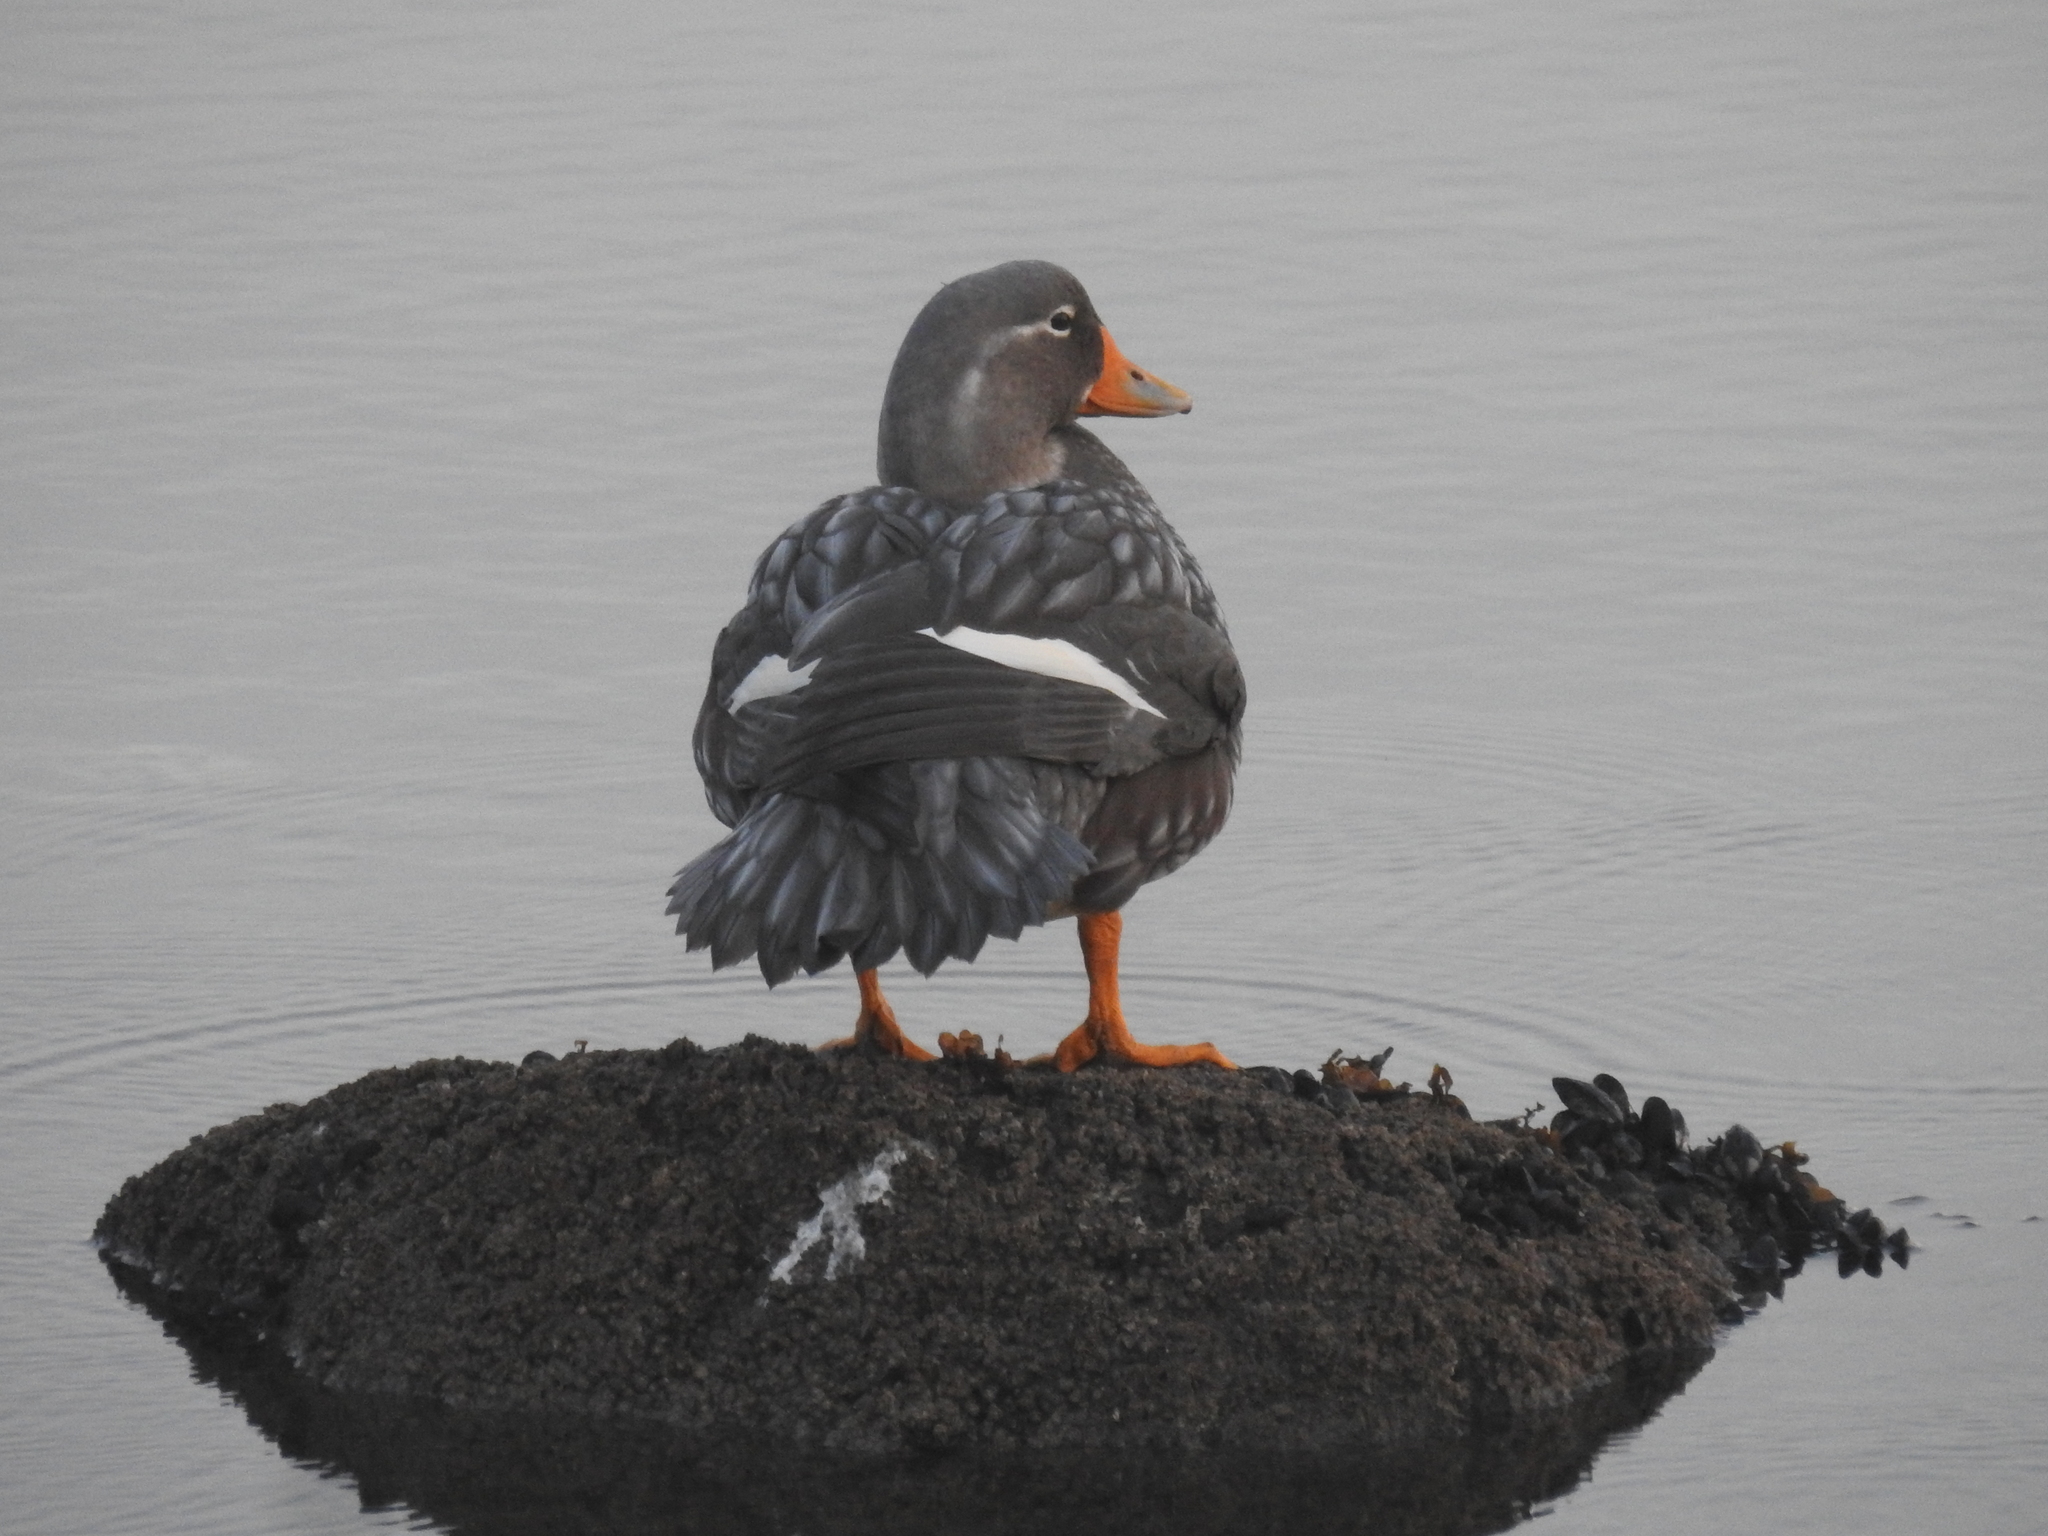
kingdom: Animalia
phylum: Chordata
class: Aves
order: Anseriformes
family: Anatidae
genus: Tachyeres
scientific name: Tachyeres patachonicus
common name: Flying steamer duck
